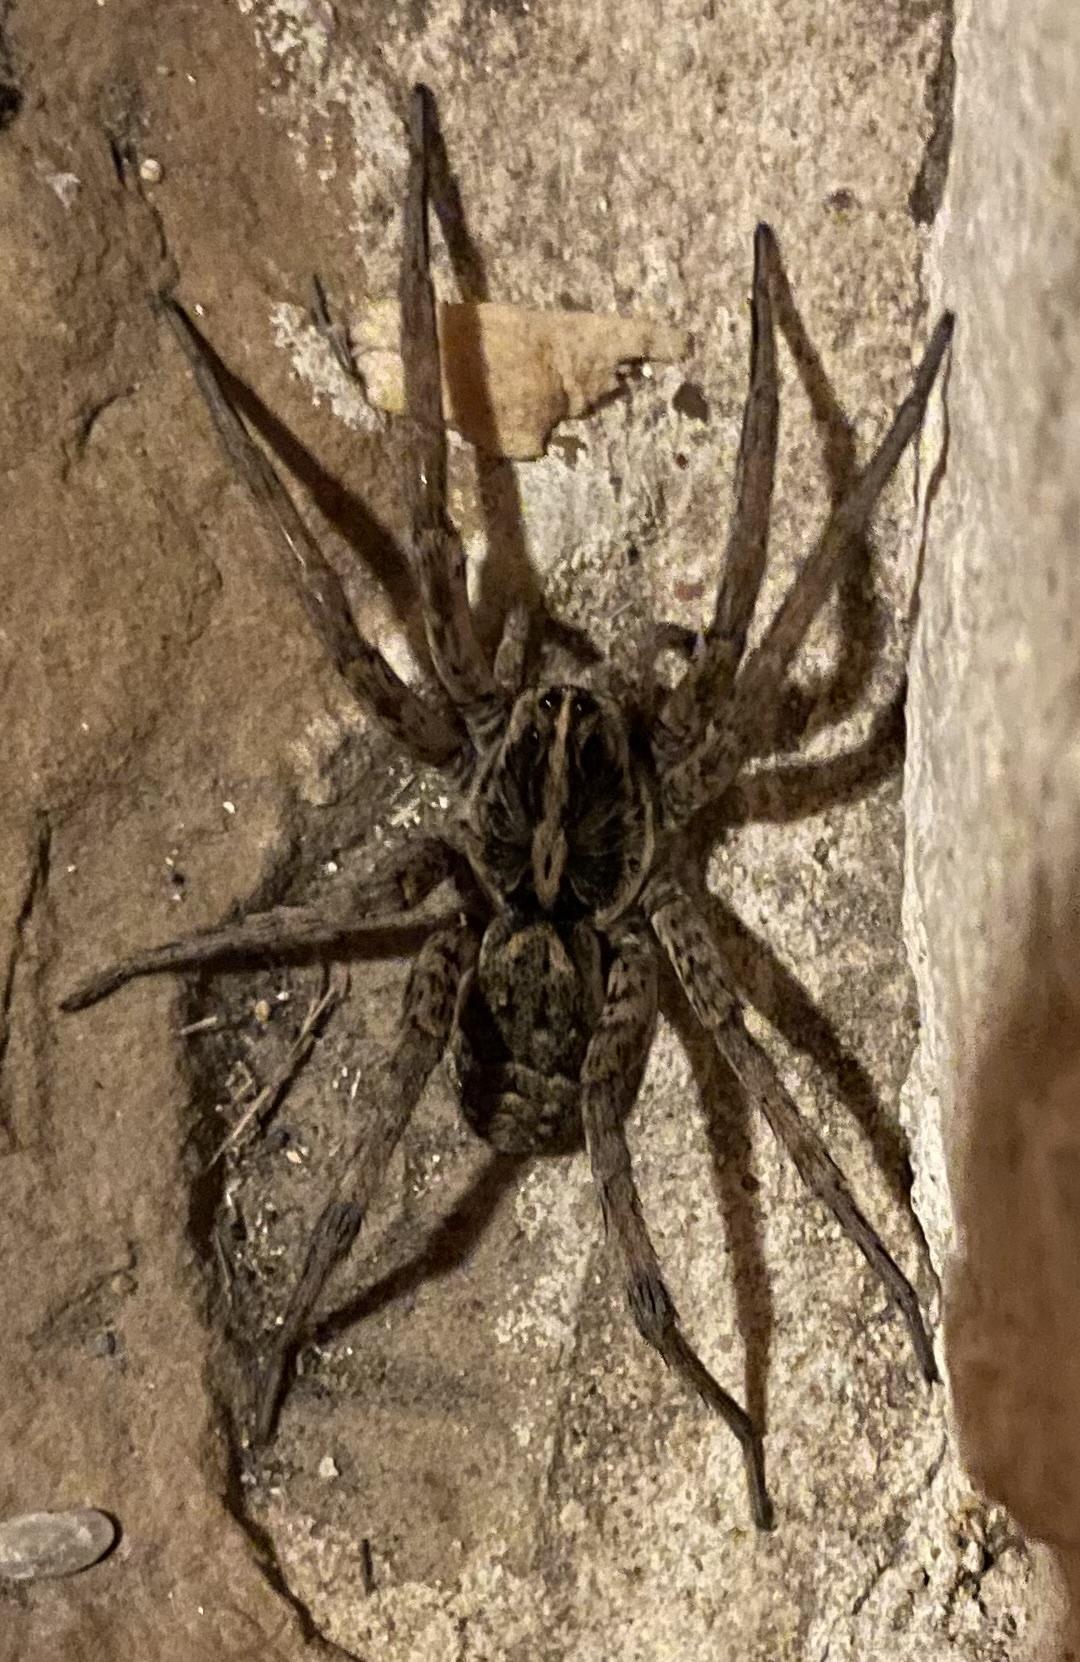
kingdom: Animalia
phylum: Arthropoda
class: Arachnida
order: Araneae
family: Lycosidae
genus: Hogna
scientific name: Hogna antelucana
